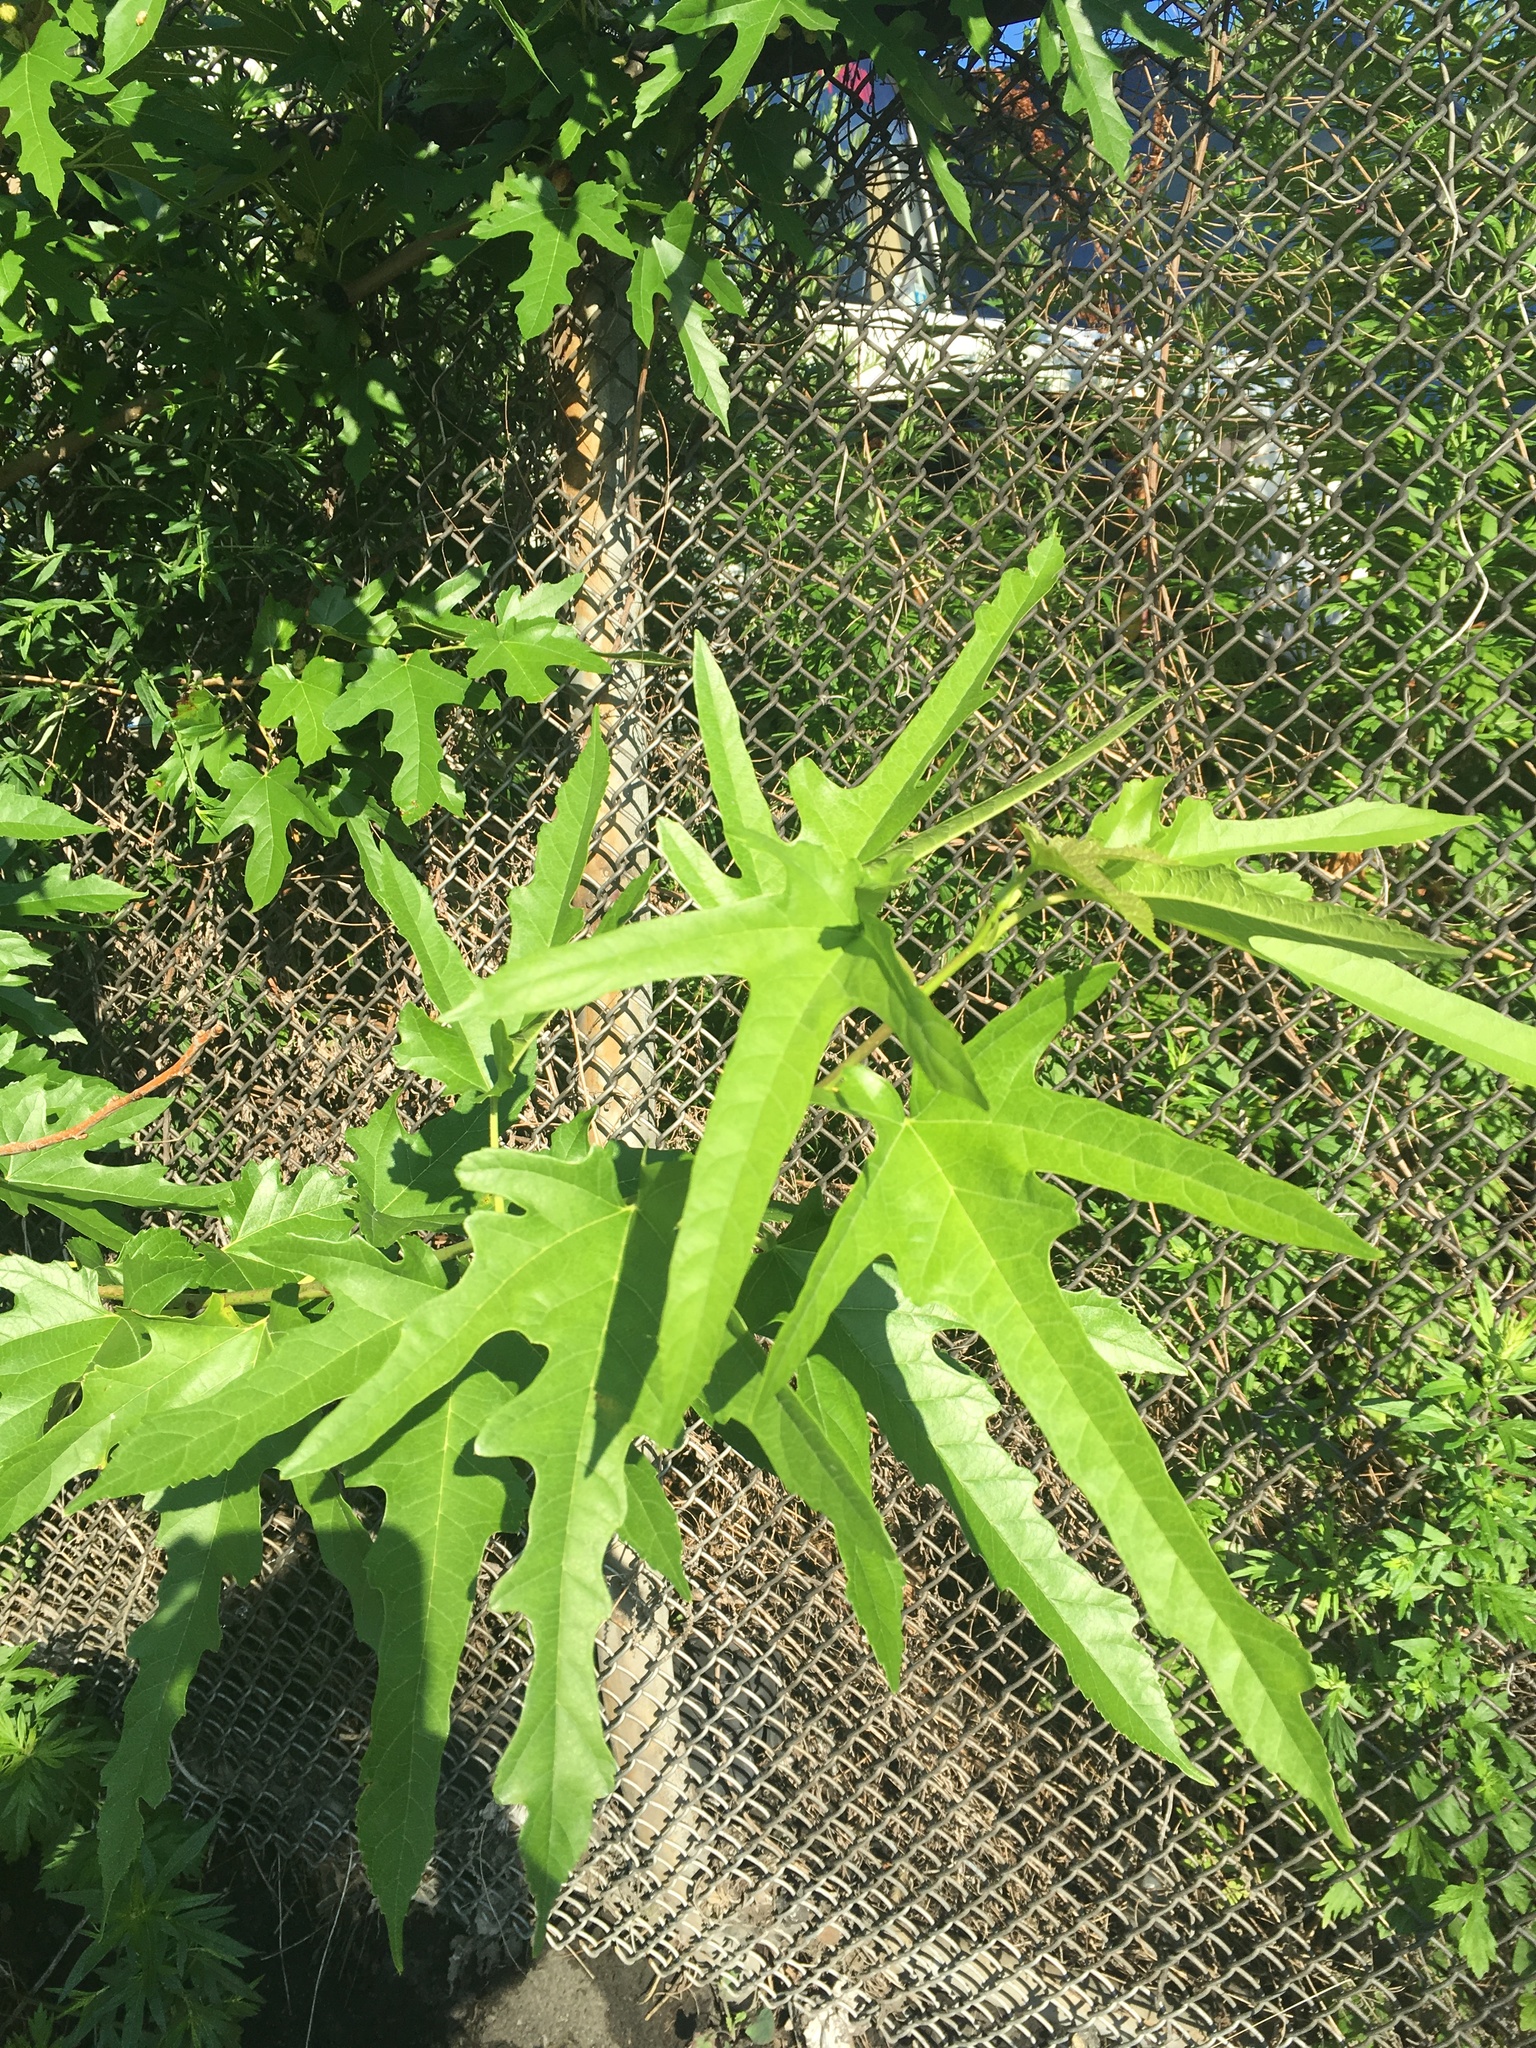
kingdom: Plantae
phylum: Tracheophyta
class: Magnoliopsida
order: Rosales
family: Moraceae
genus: Morus
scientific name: Morus alba
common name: White mulberry
